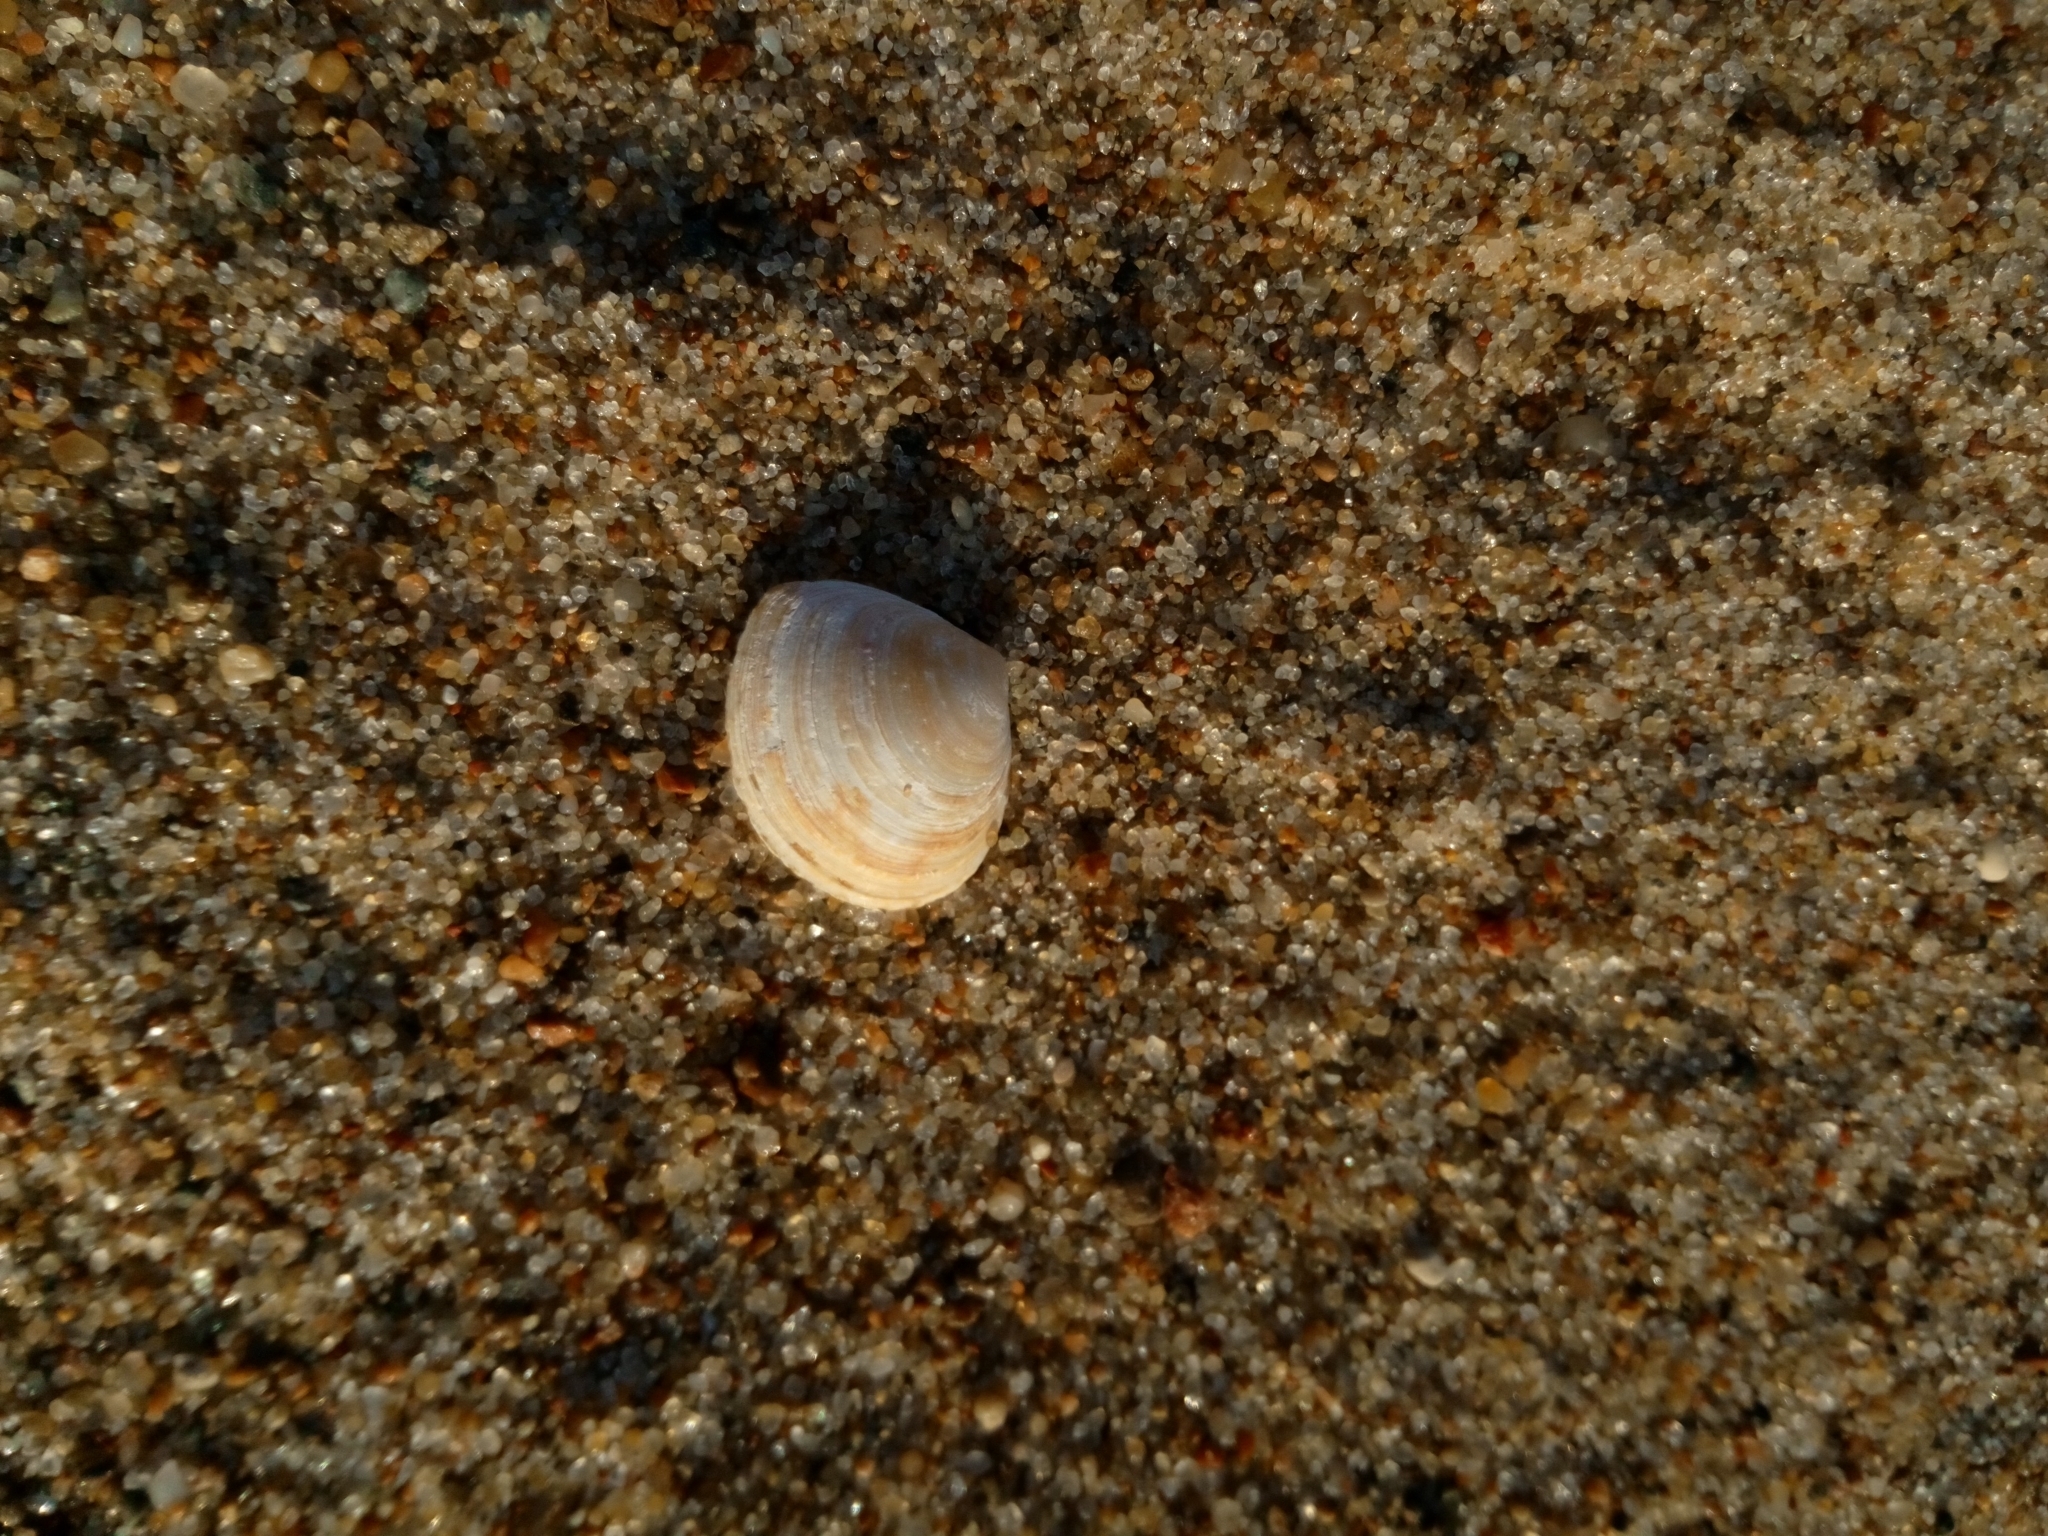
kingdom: Animalia
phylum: Mollusca
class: Bivalvia
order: Cardiida
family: Tellinidae
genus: Macoma
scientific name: Macoma balthica
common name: Baltic tellin
